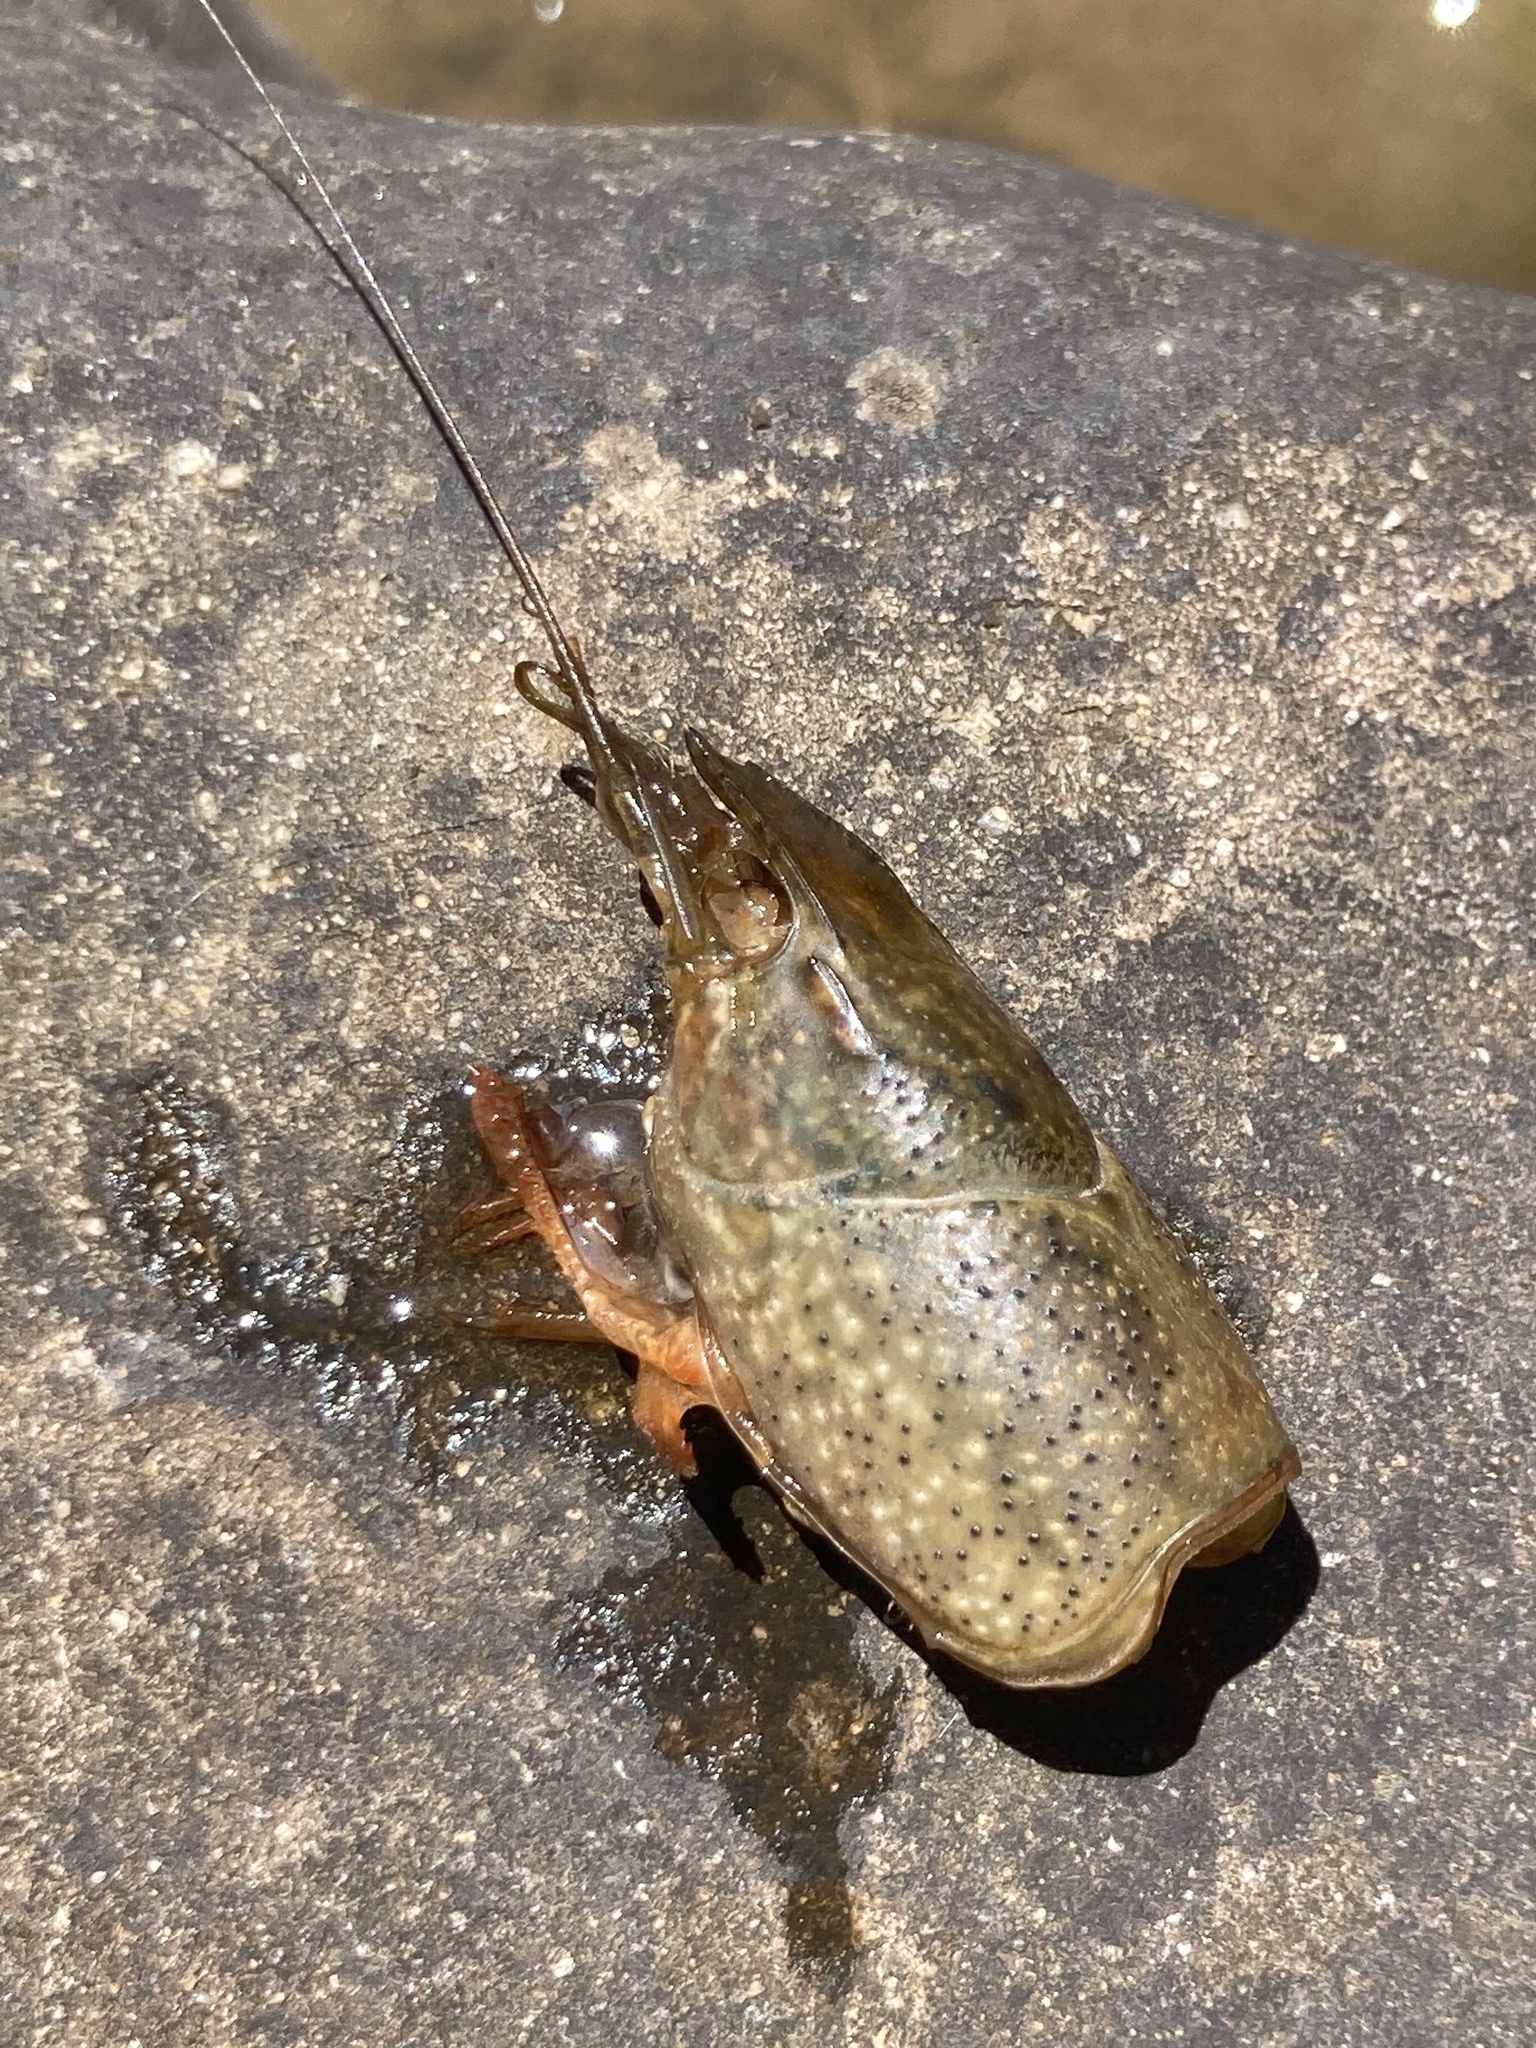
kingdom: Animalia
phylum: Arthropoda
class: Malacostraca
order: Decapoda
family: Cambaridae
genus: Procambarus
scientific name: Procambarus clarkii
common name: Red swamp crayfish
